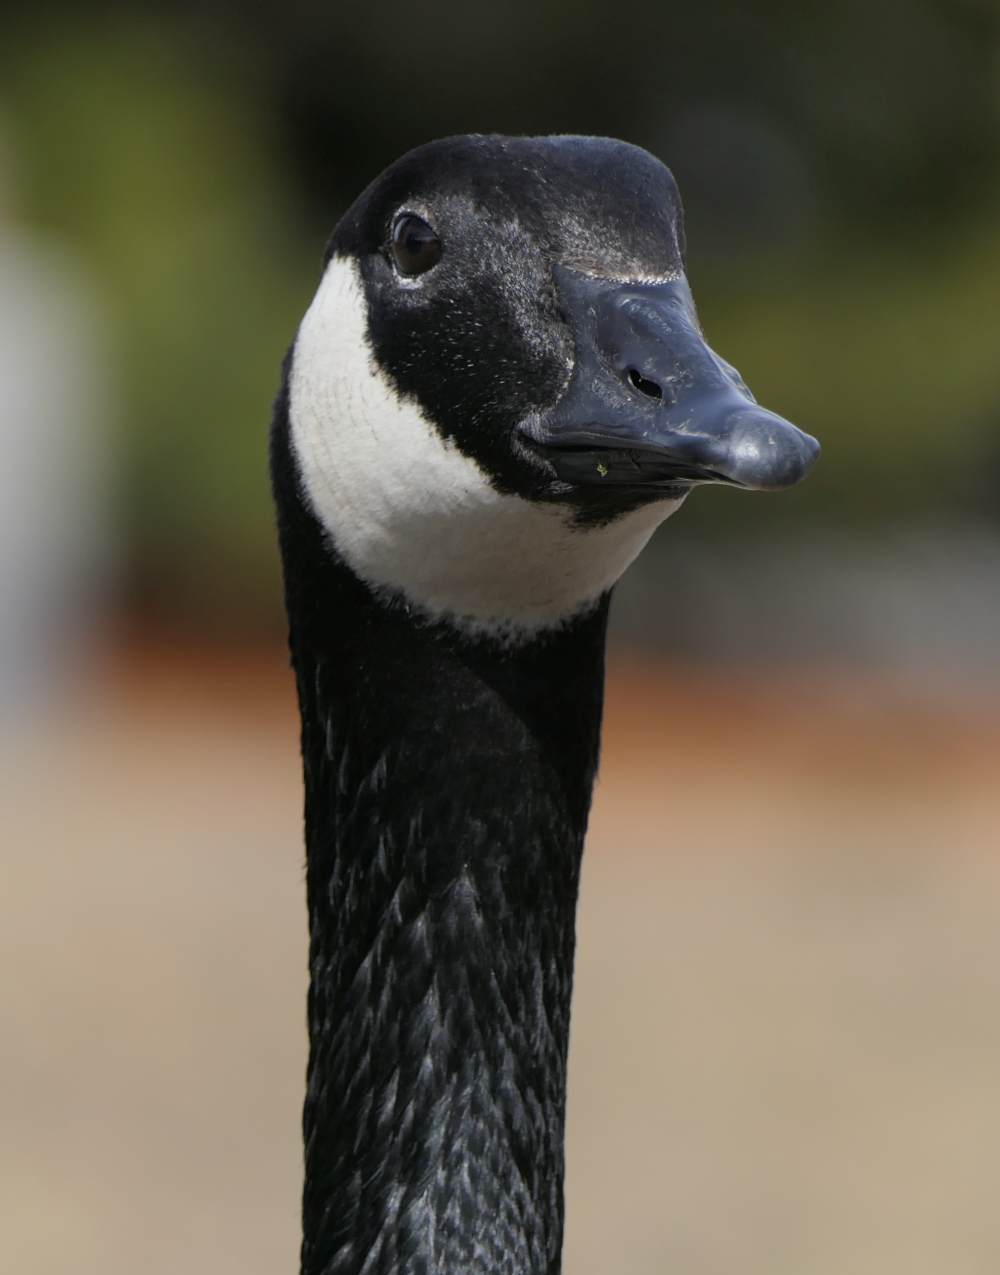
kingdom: Animalia
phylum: Chordata
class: Aves
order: Anseriformes
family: Anatidae
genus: Branta
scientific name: Branta canadensis
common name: Canada goose
